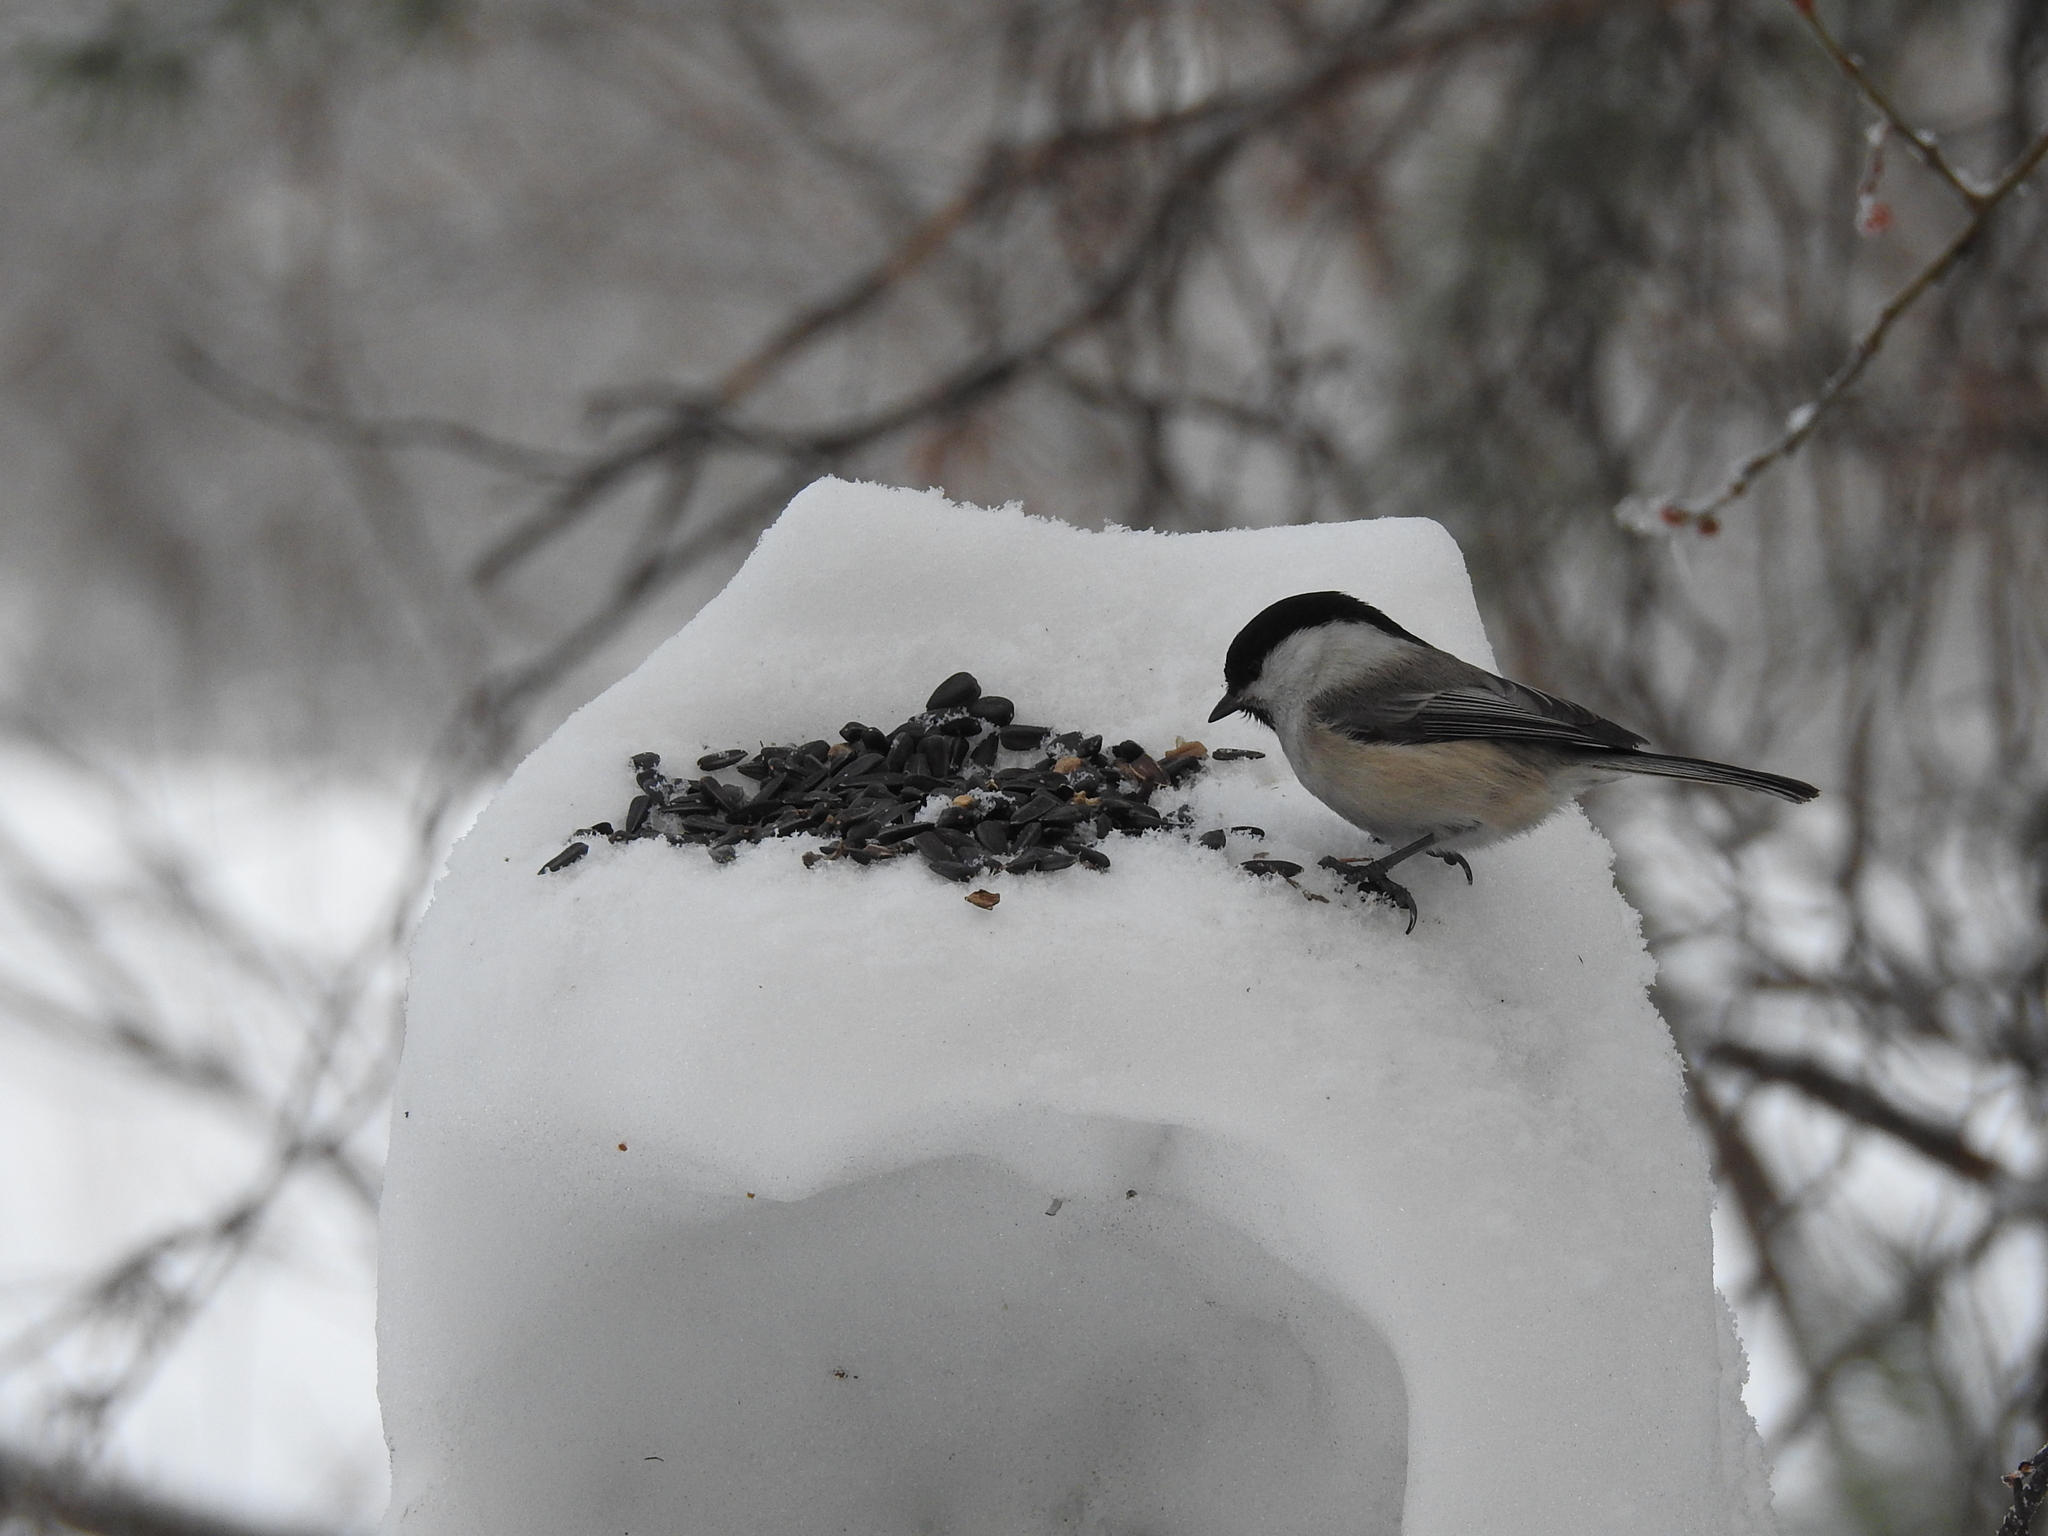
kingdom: Animalia
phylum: Chordata
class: Aves
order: Passeriformes
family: Paridae
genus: Poecile
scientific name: Poecile montanus
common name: Willow tit
